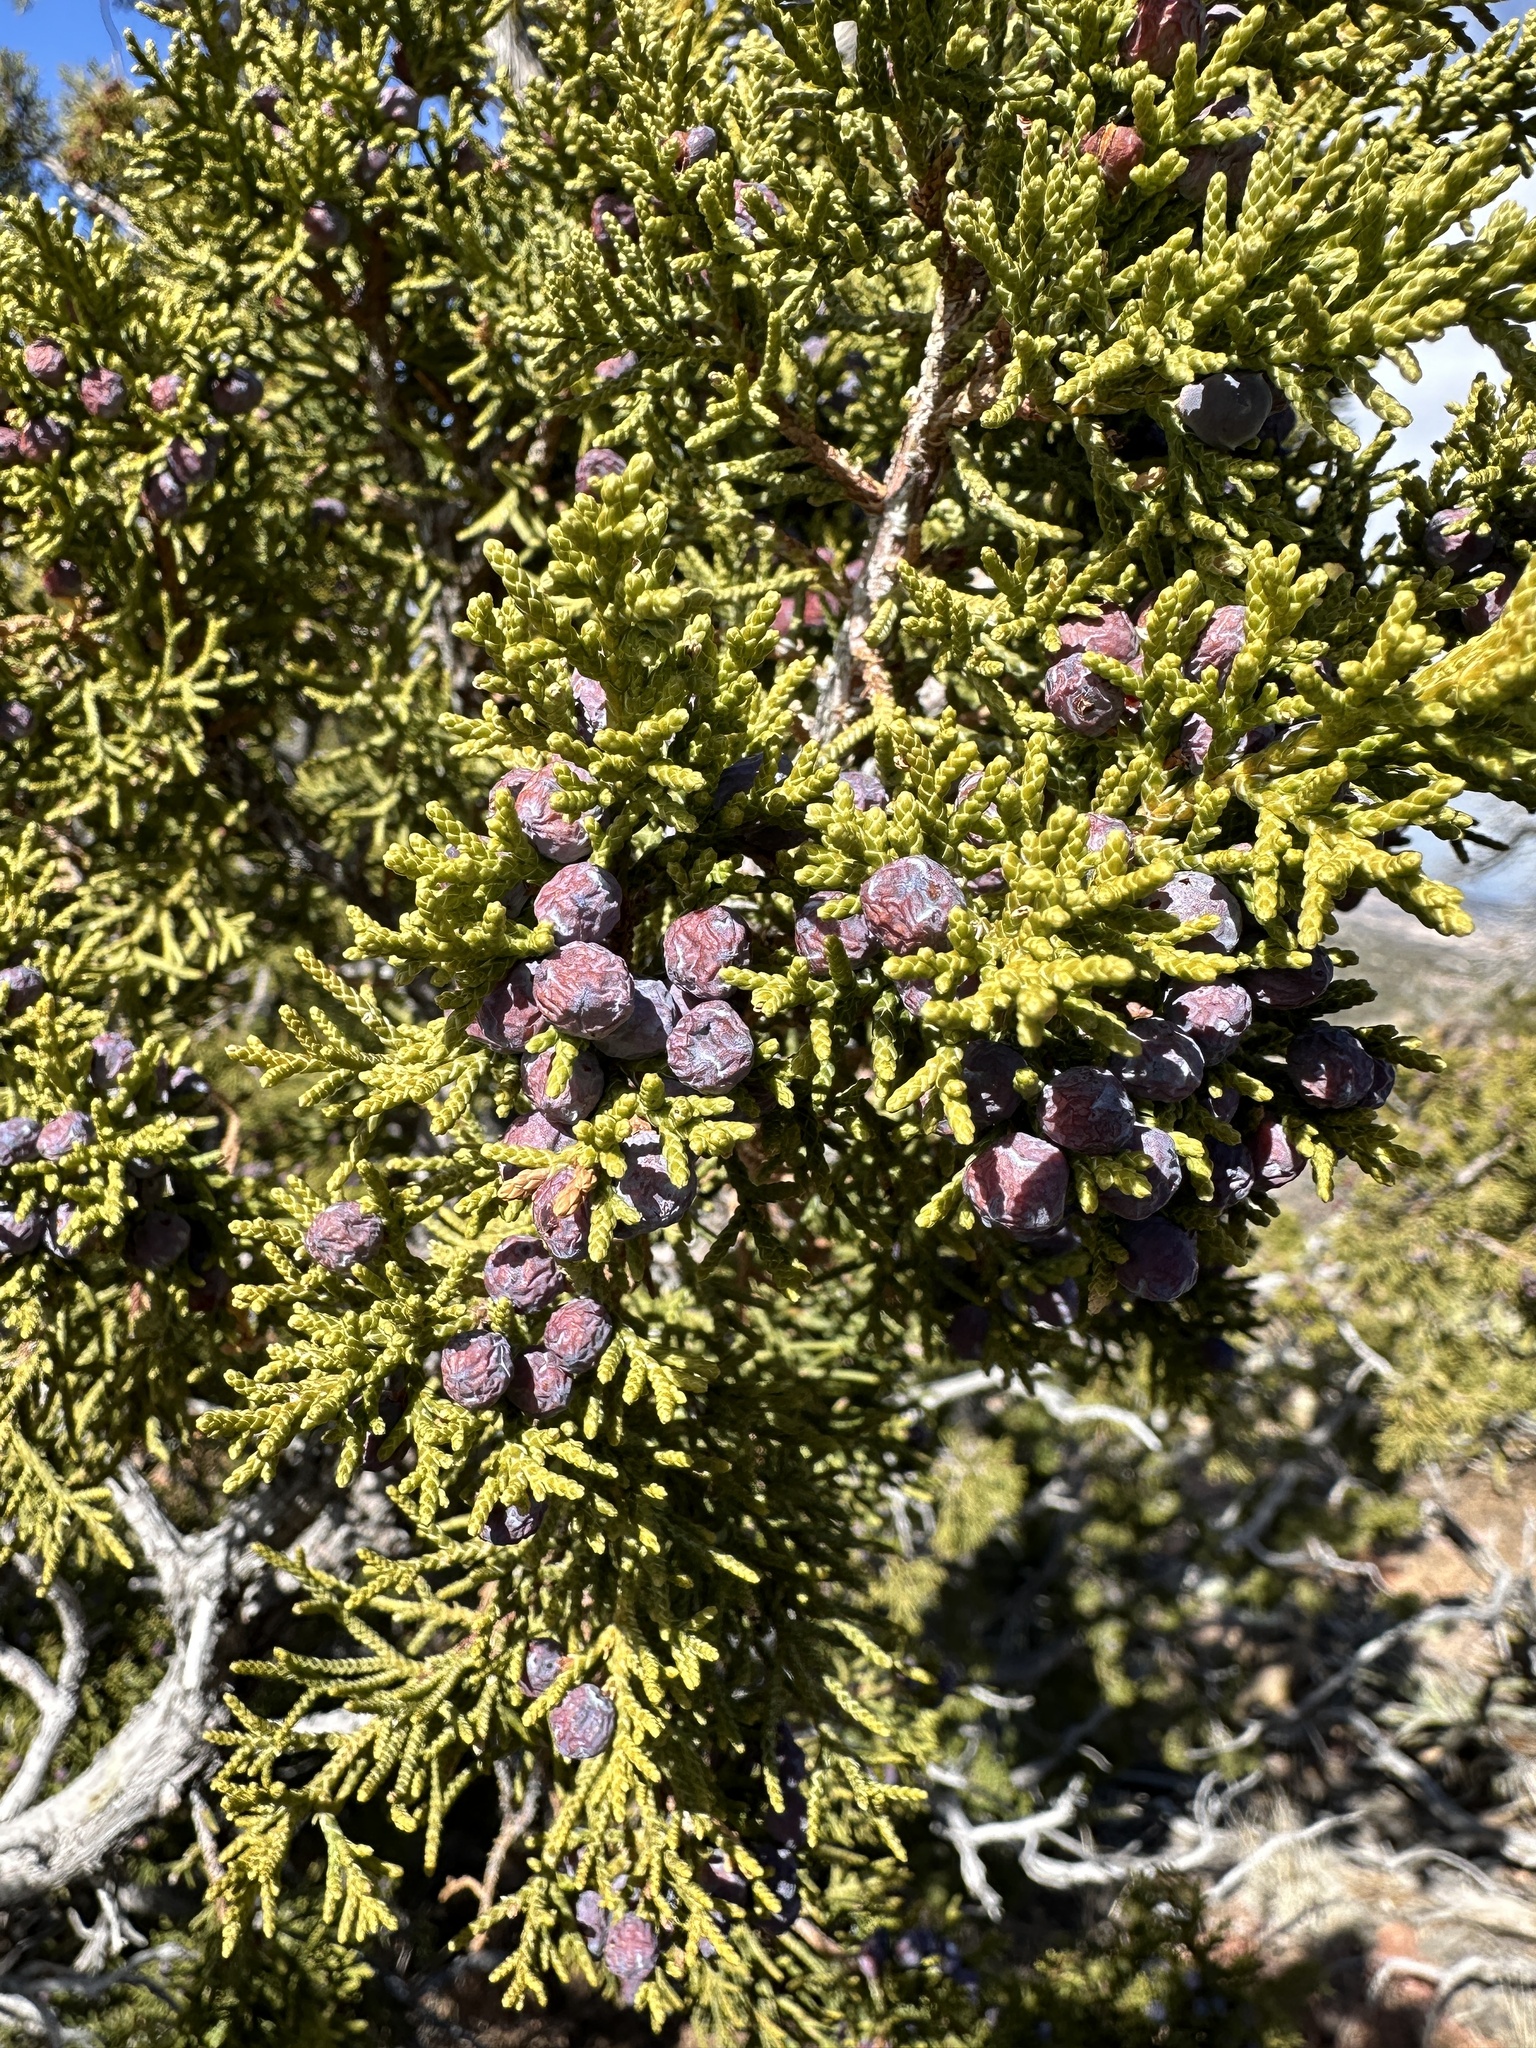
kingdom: Plantae
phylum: Tracheophyta
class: Pinopsida
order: Pinales
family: Cupressaceae
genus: Juniperus
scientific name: Juniperus monosperma
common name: One-seed juniper
